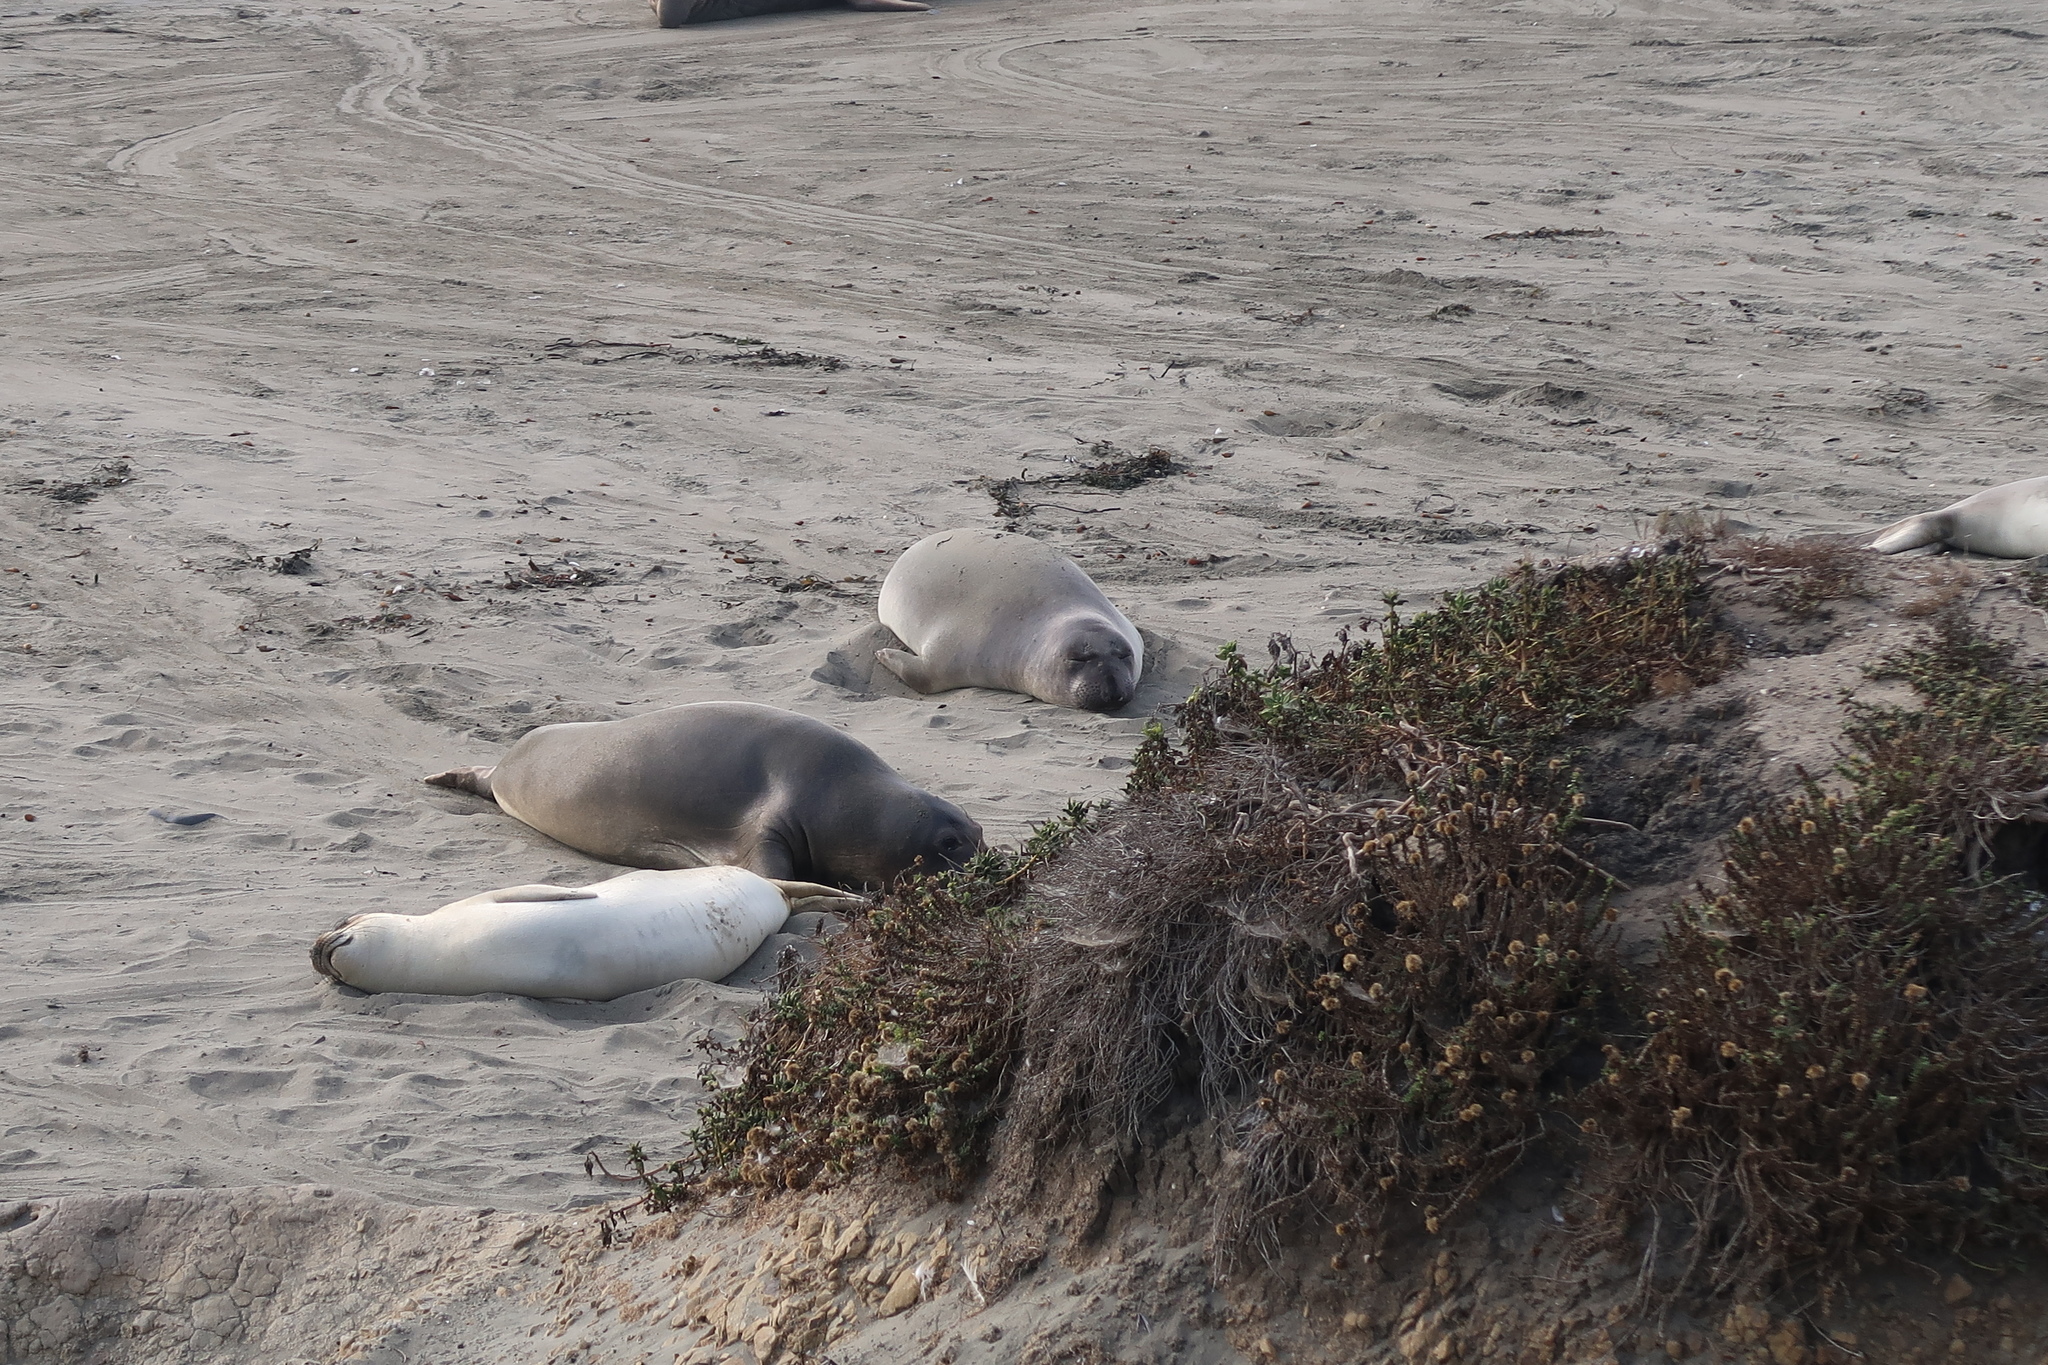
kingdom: Animalia
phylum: Chordata
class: Mammalia
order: Carnivora
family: Phocidae
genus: Mirounga
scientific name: Mirounga angustirostris
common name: Northern elephant seal
